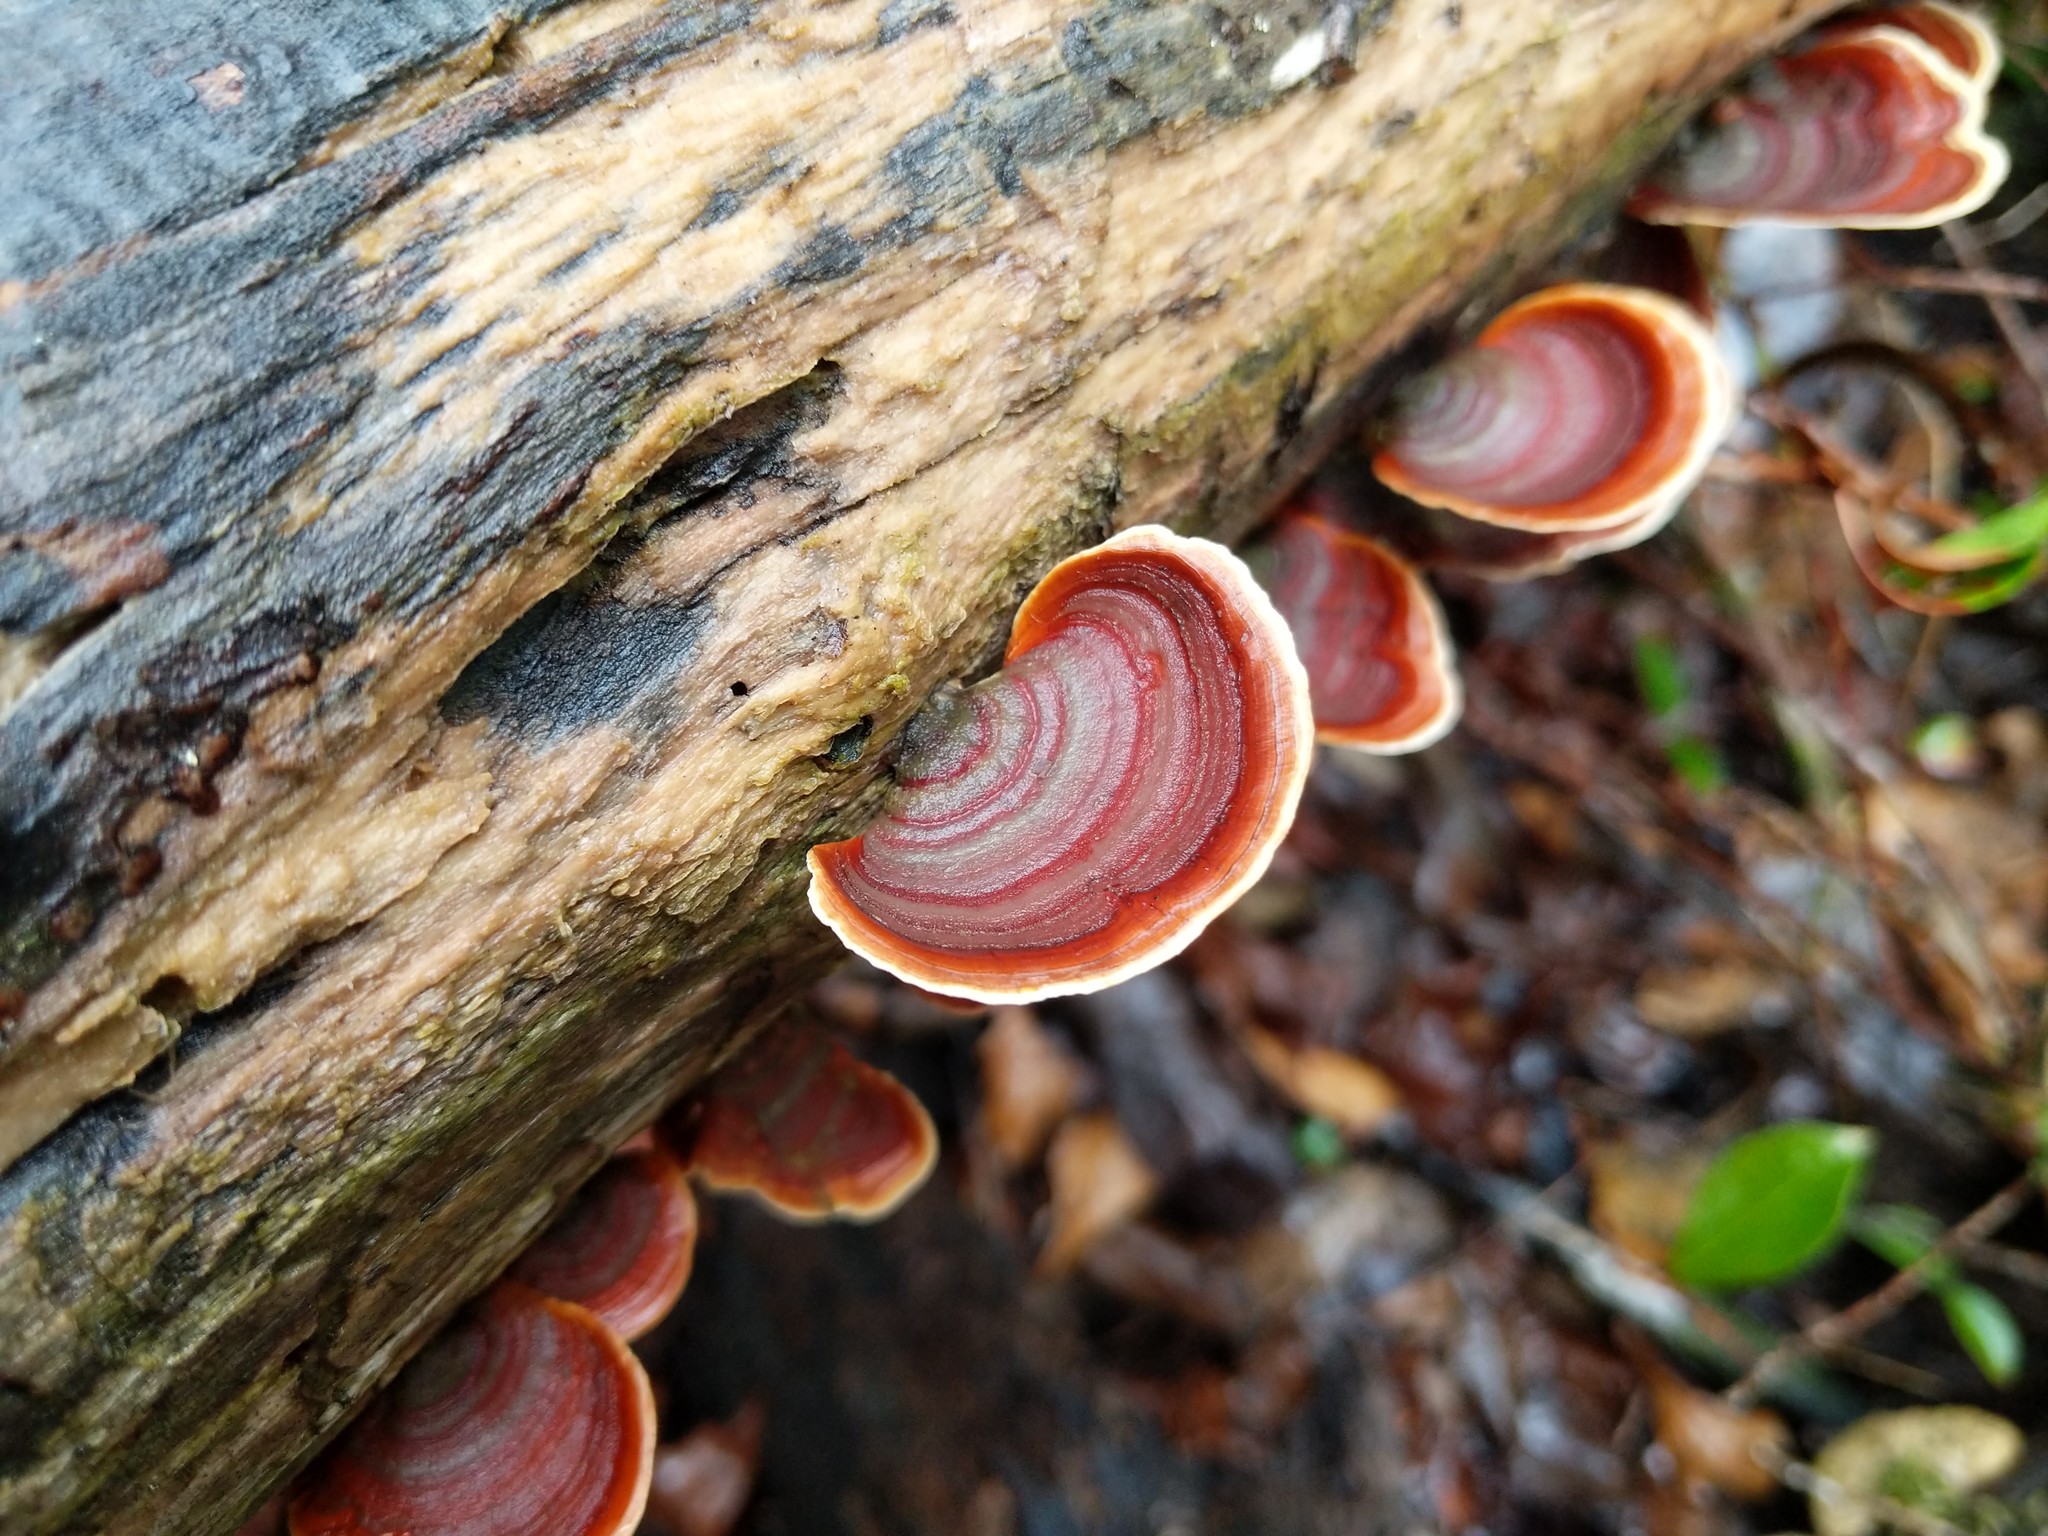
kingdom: Fungi
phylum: Basidiomycota
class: Agaricomycetes
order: Russulales
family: Stereaceae
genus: Stereum
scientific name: Stereum ostrea
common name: False turkeytail
